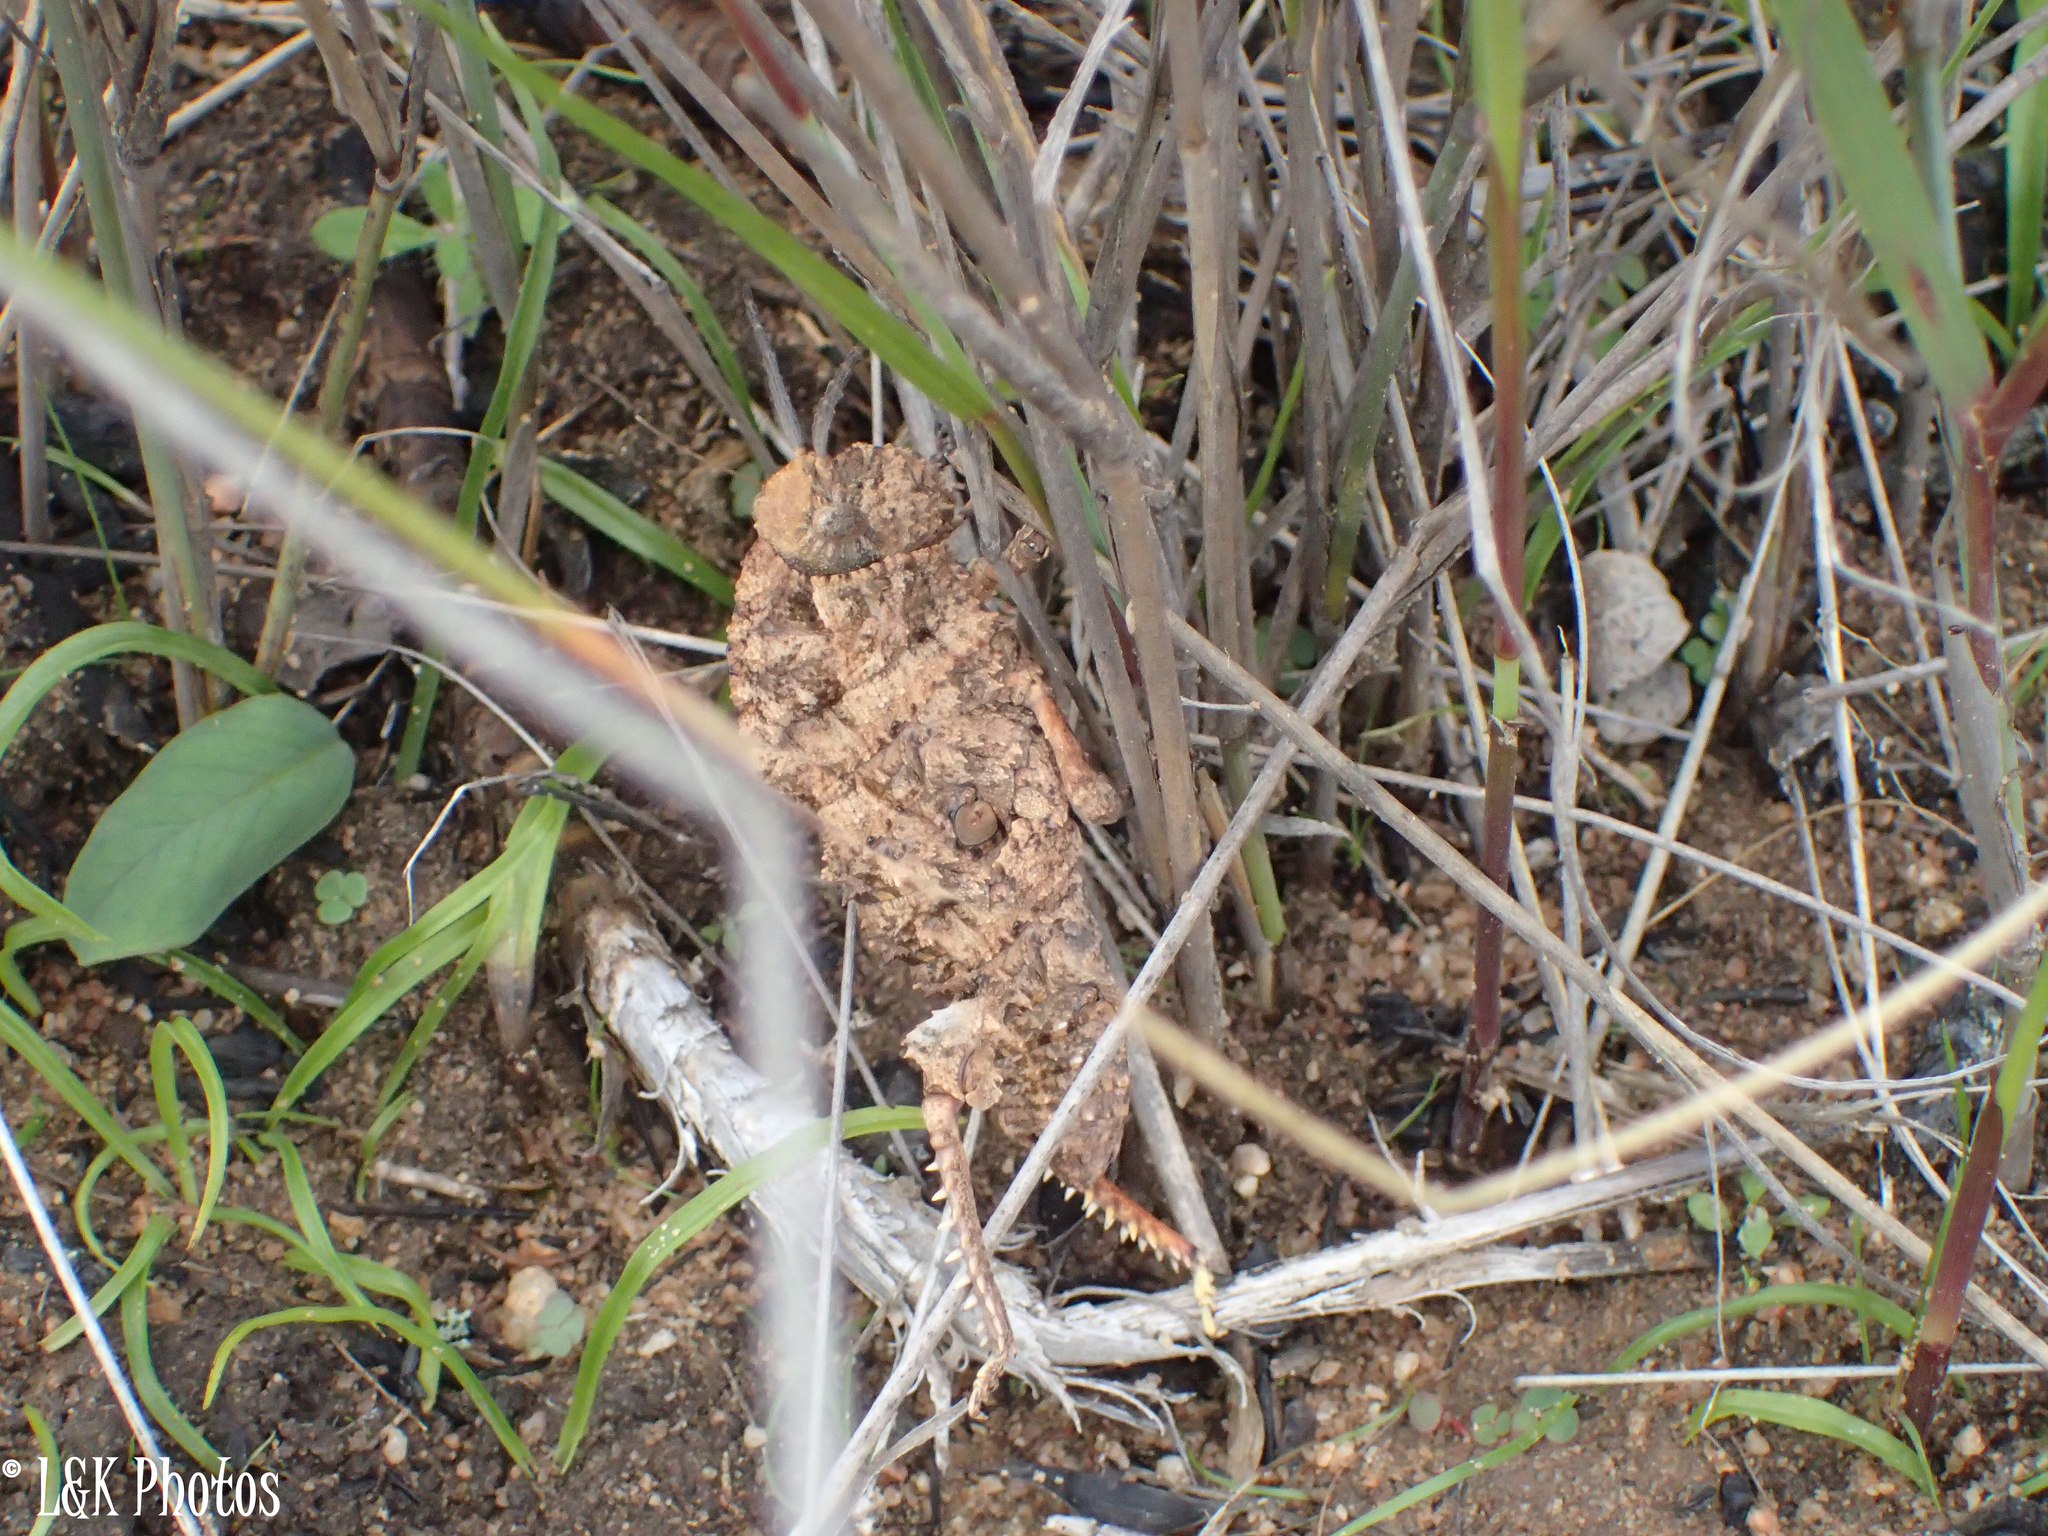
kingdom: Animalia
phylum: Arthropoda
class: Insecta
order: Orthoptera
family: Pamphagidae
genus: Porthetis
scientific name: Porthetis carinata
